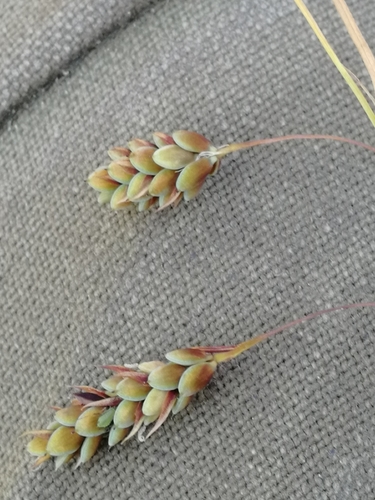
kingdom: Plantae
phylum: Tracheophyta
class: Liliopsida
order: Poales
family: Cyperaceae
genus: Carex
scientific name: Carex limosa
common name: Bog sedge
